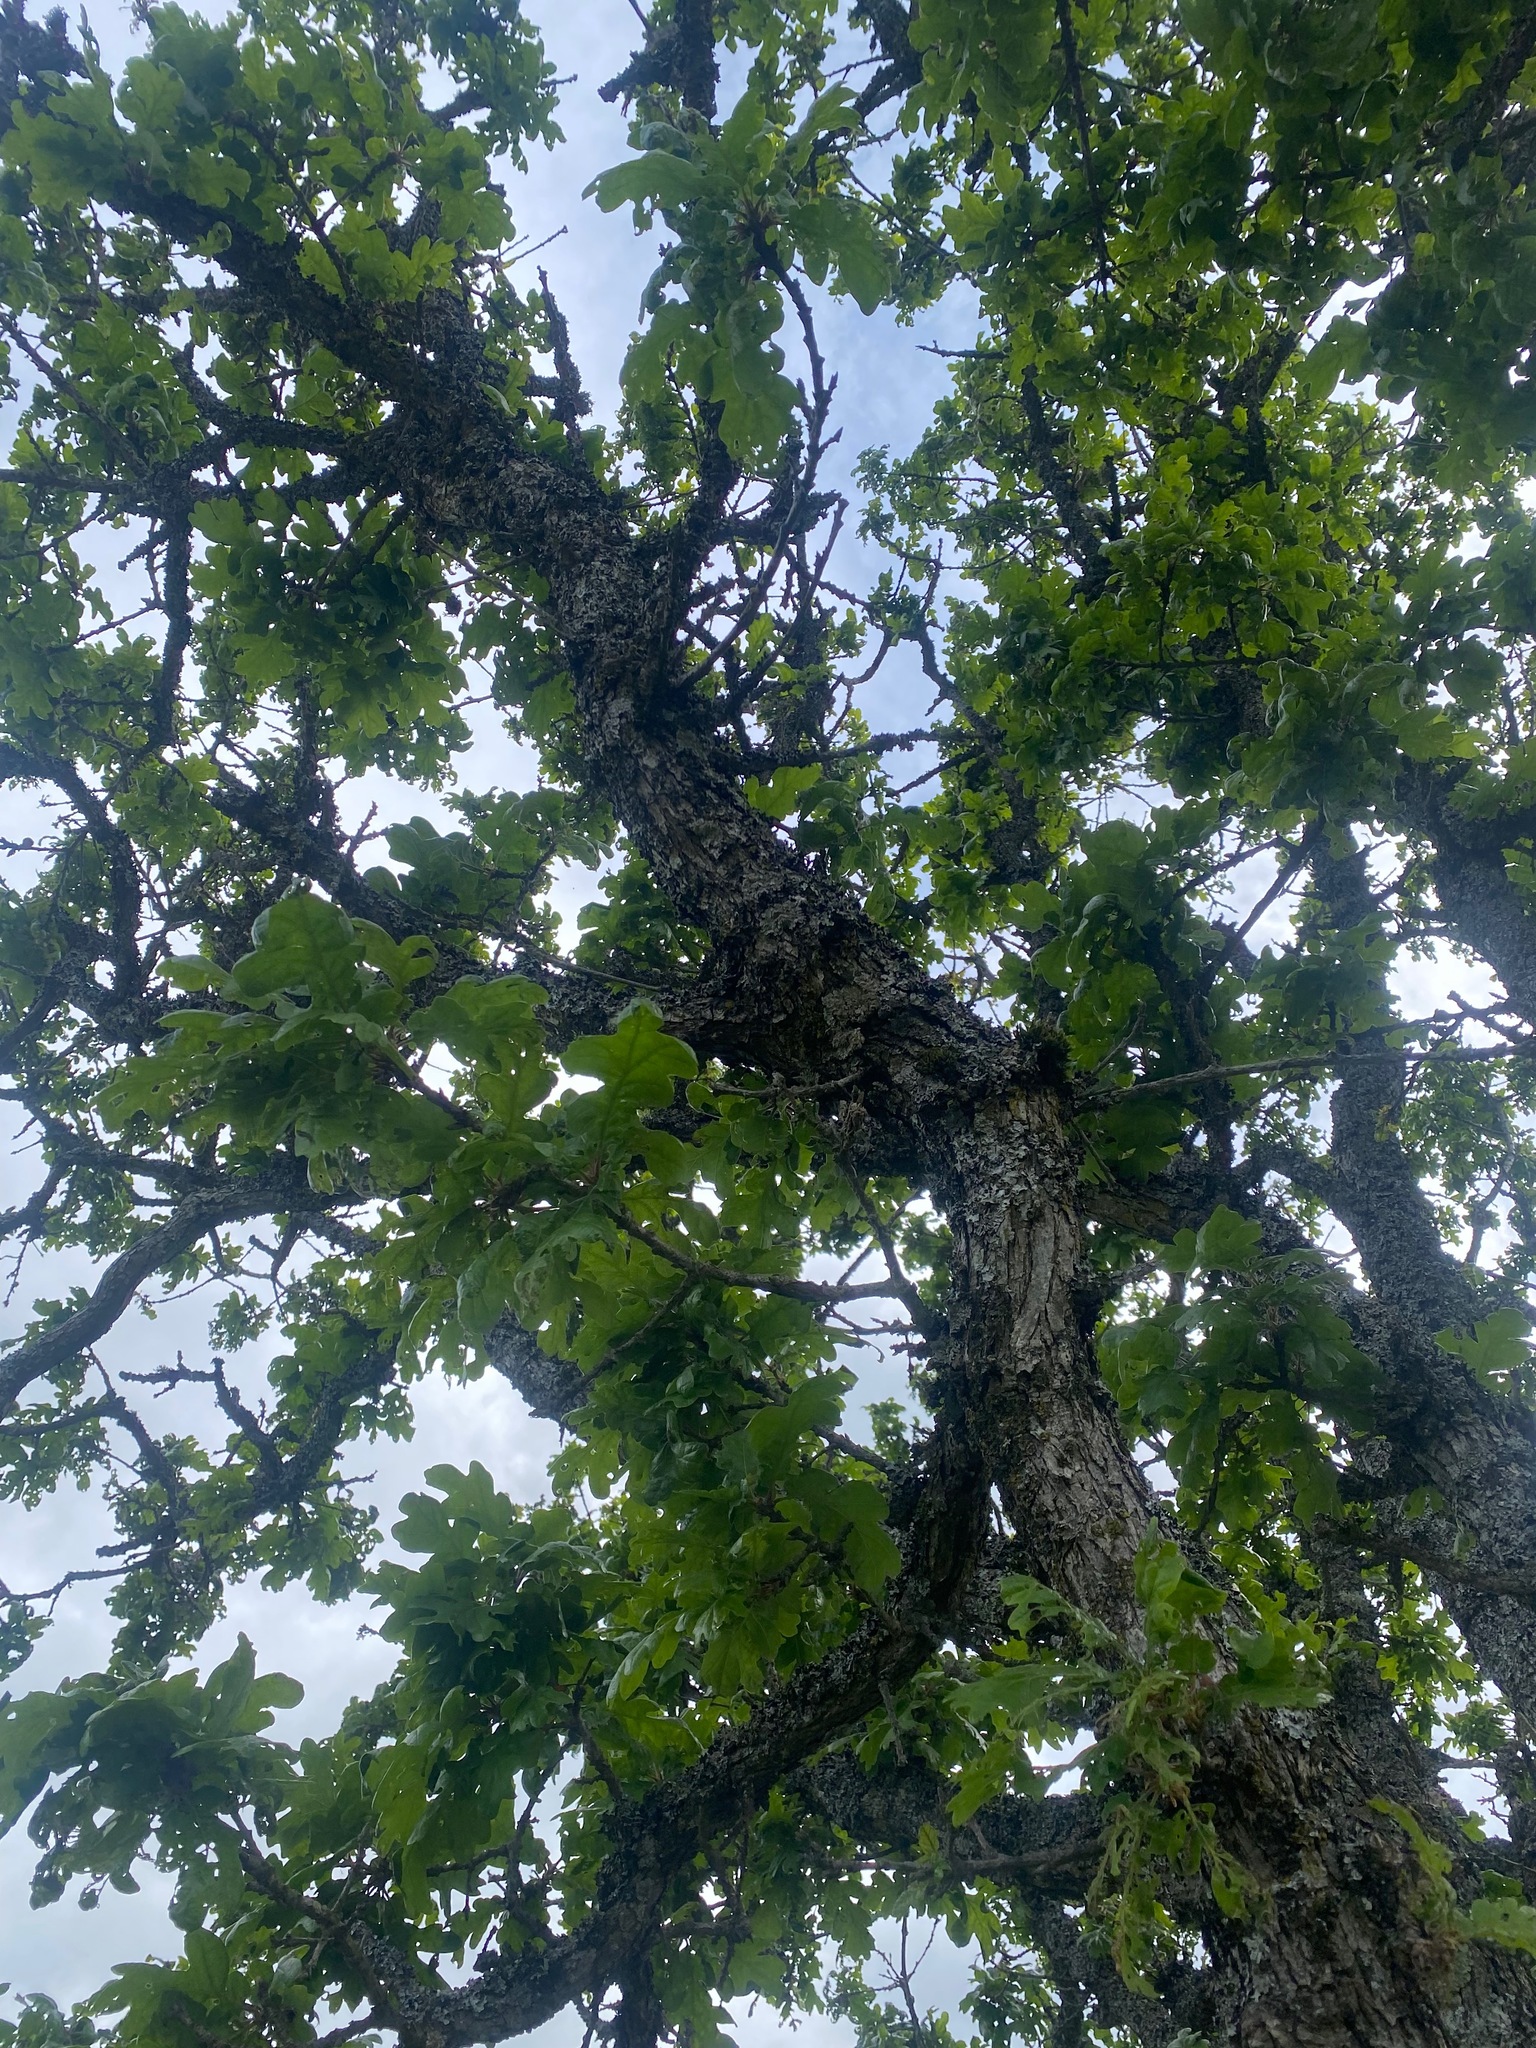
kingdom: Plantae
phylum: Tracheophyta
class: Magnoliopsida
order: Fagales
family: Fagaceae
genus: Quercus
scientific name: Quercus garryana
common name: Garry oak
